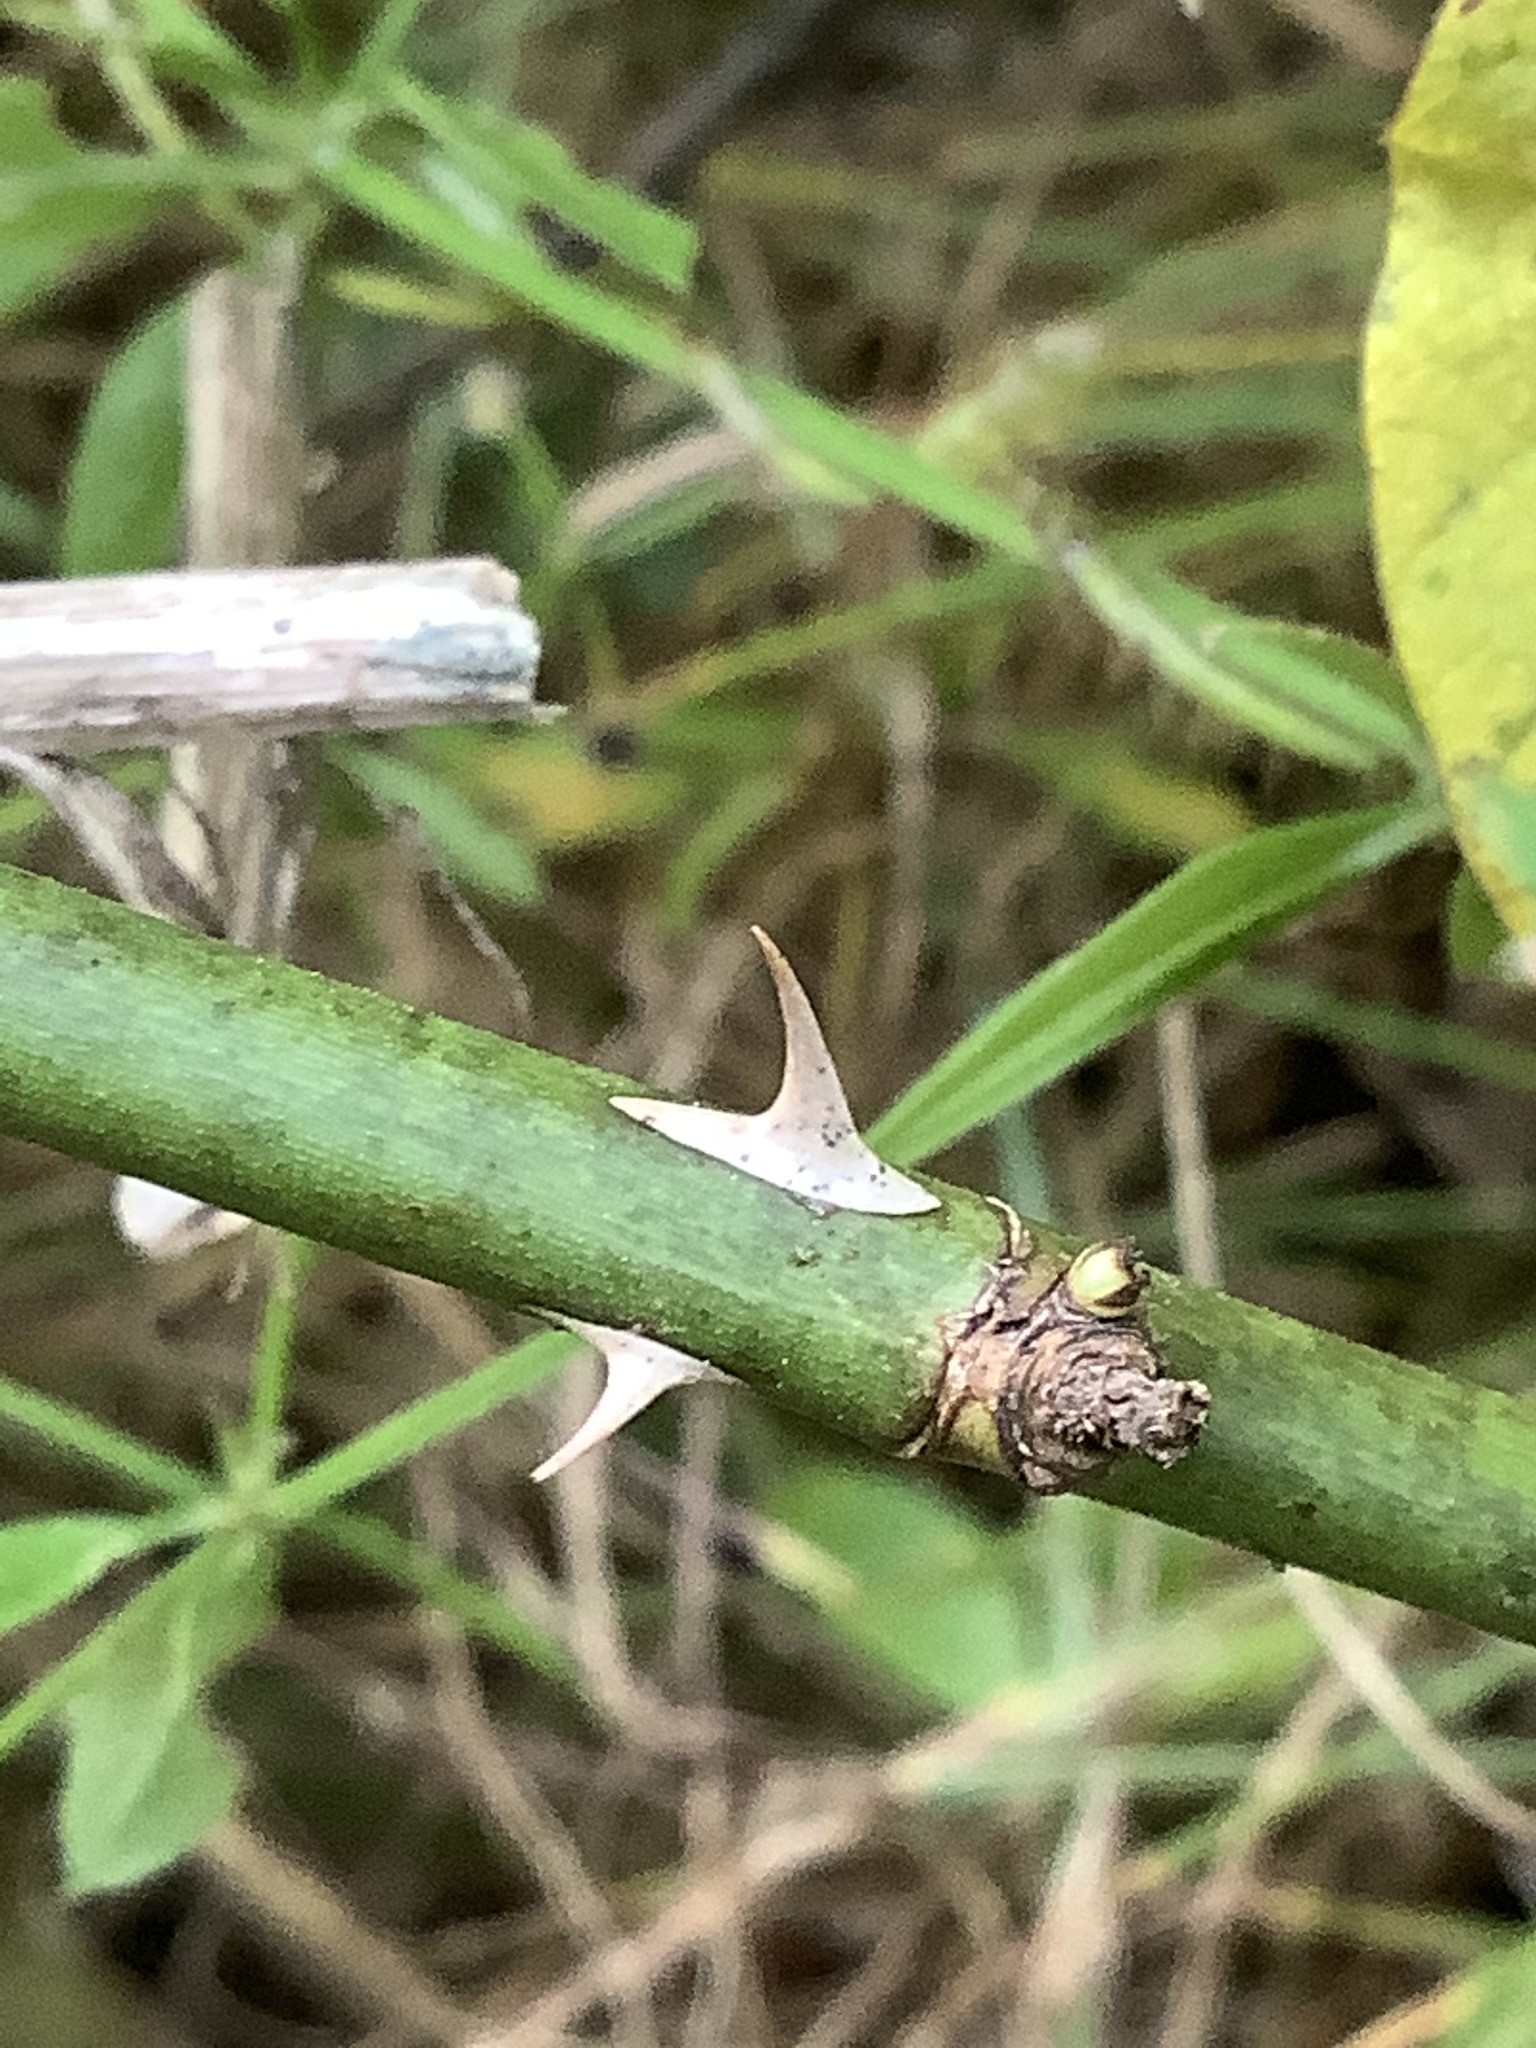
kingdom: Plantae
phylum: Tracheophyta
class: Magnoliopsida
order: Rosales
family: Rosaceae
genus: Rosa
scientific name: Rosa multiflora
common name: Multiflora rose
